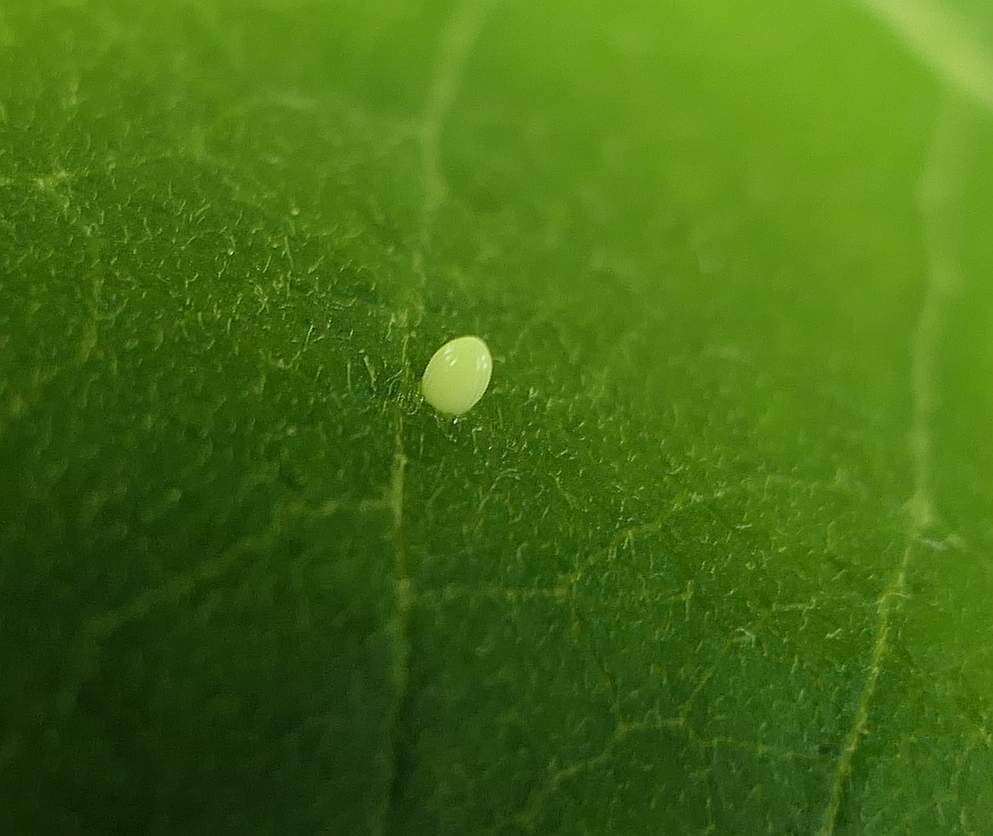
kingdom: Animalia
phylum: Arthropoda
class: Insecta
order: Lepidoptera
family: Nymphalidae
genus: Danaus
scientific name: Danaus plexippus
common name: Monarch
